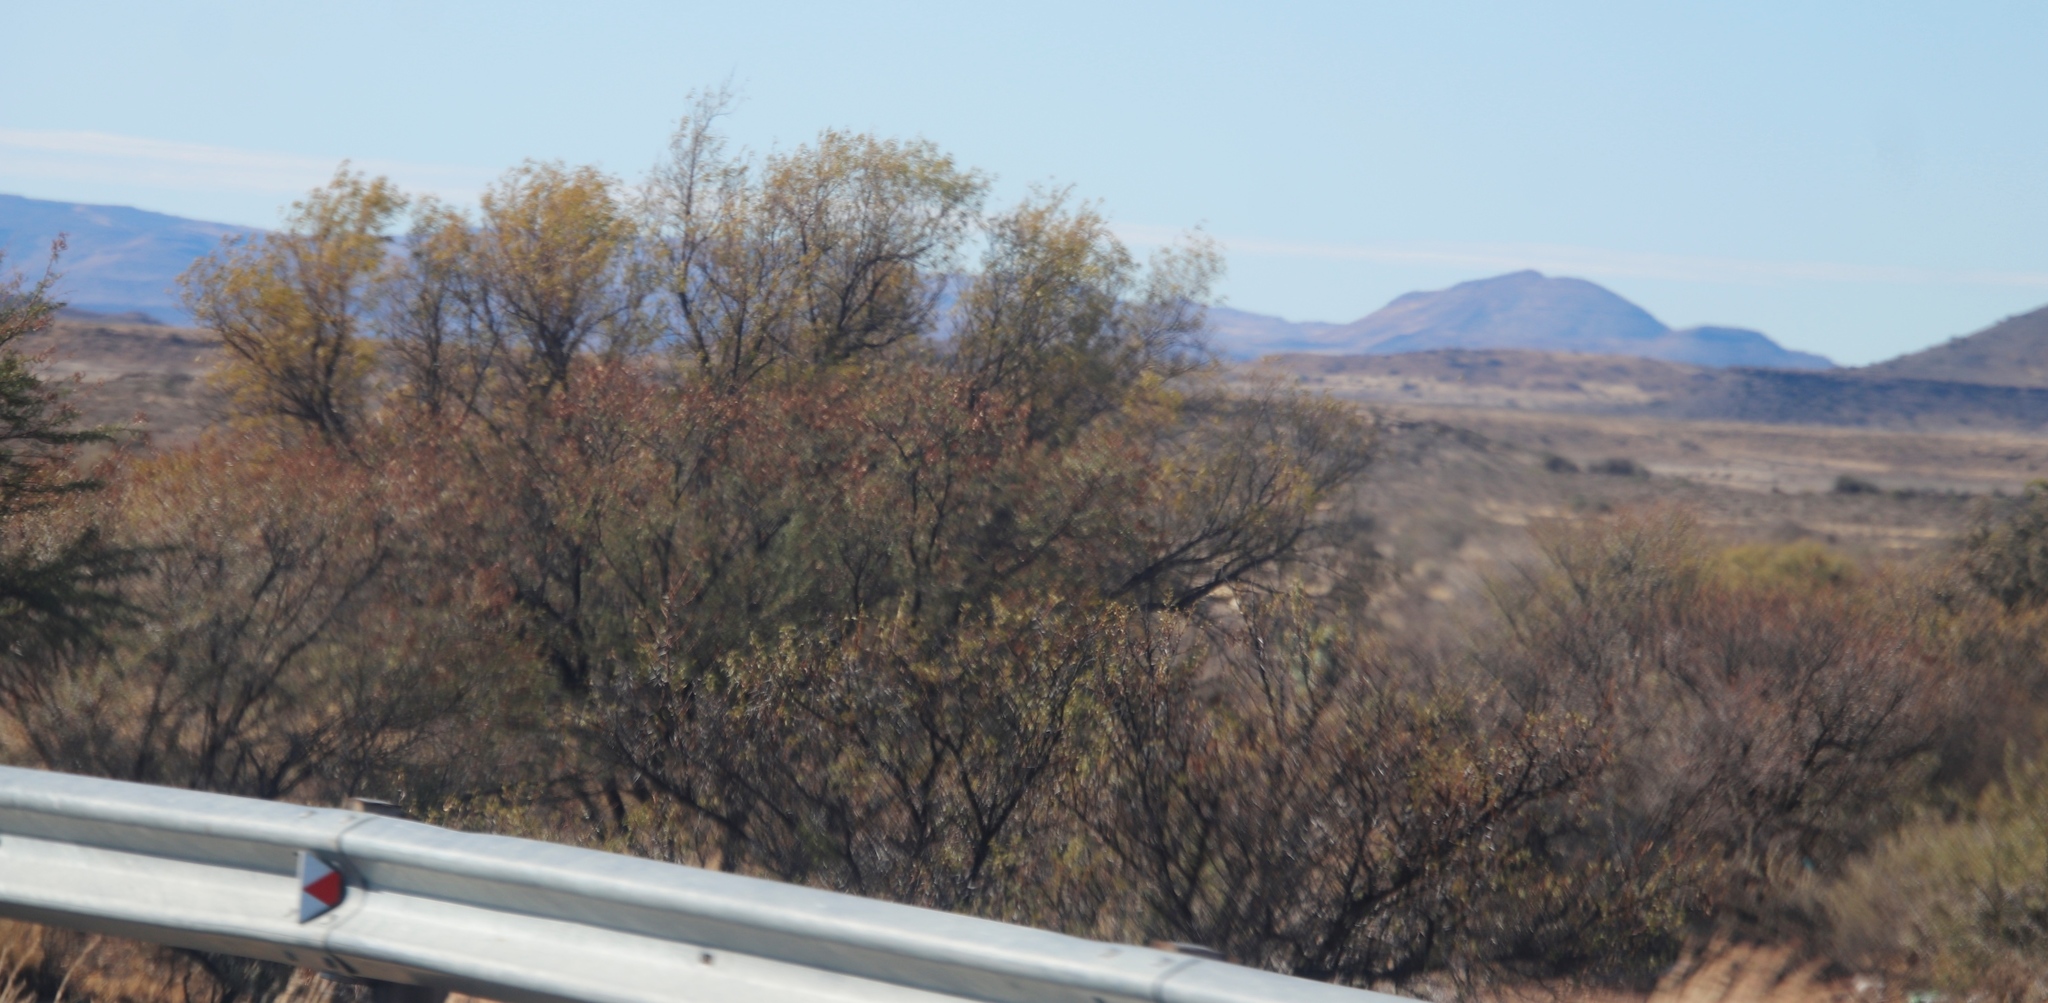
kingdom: Plantae
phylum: Tracheophyta
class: Magnoliopsida
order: Fabales
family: Fabaceae
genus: Vachellia
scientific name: Vachellia karroo
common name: Sweet thorn
